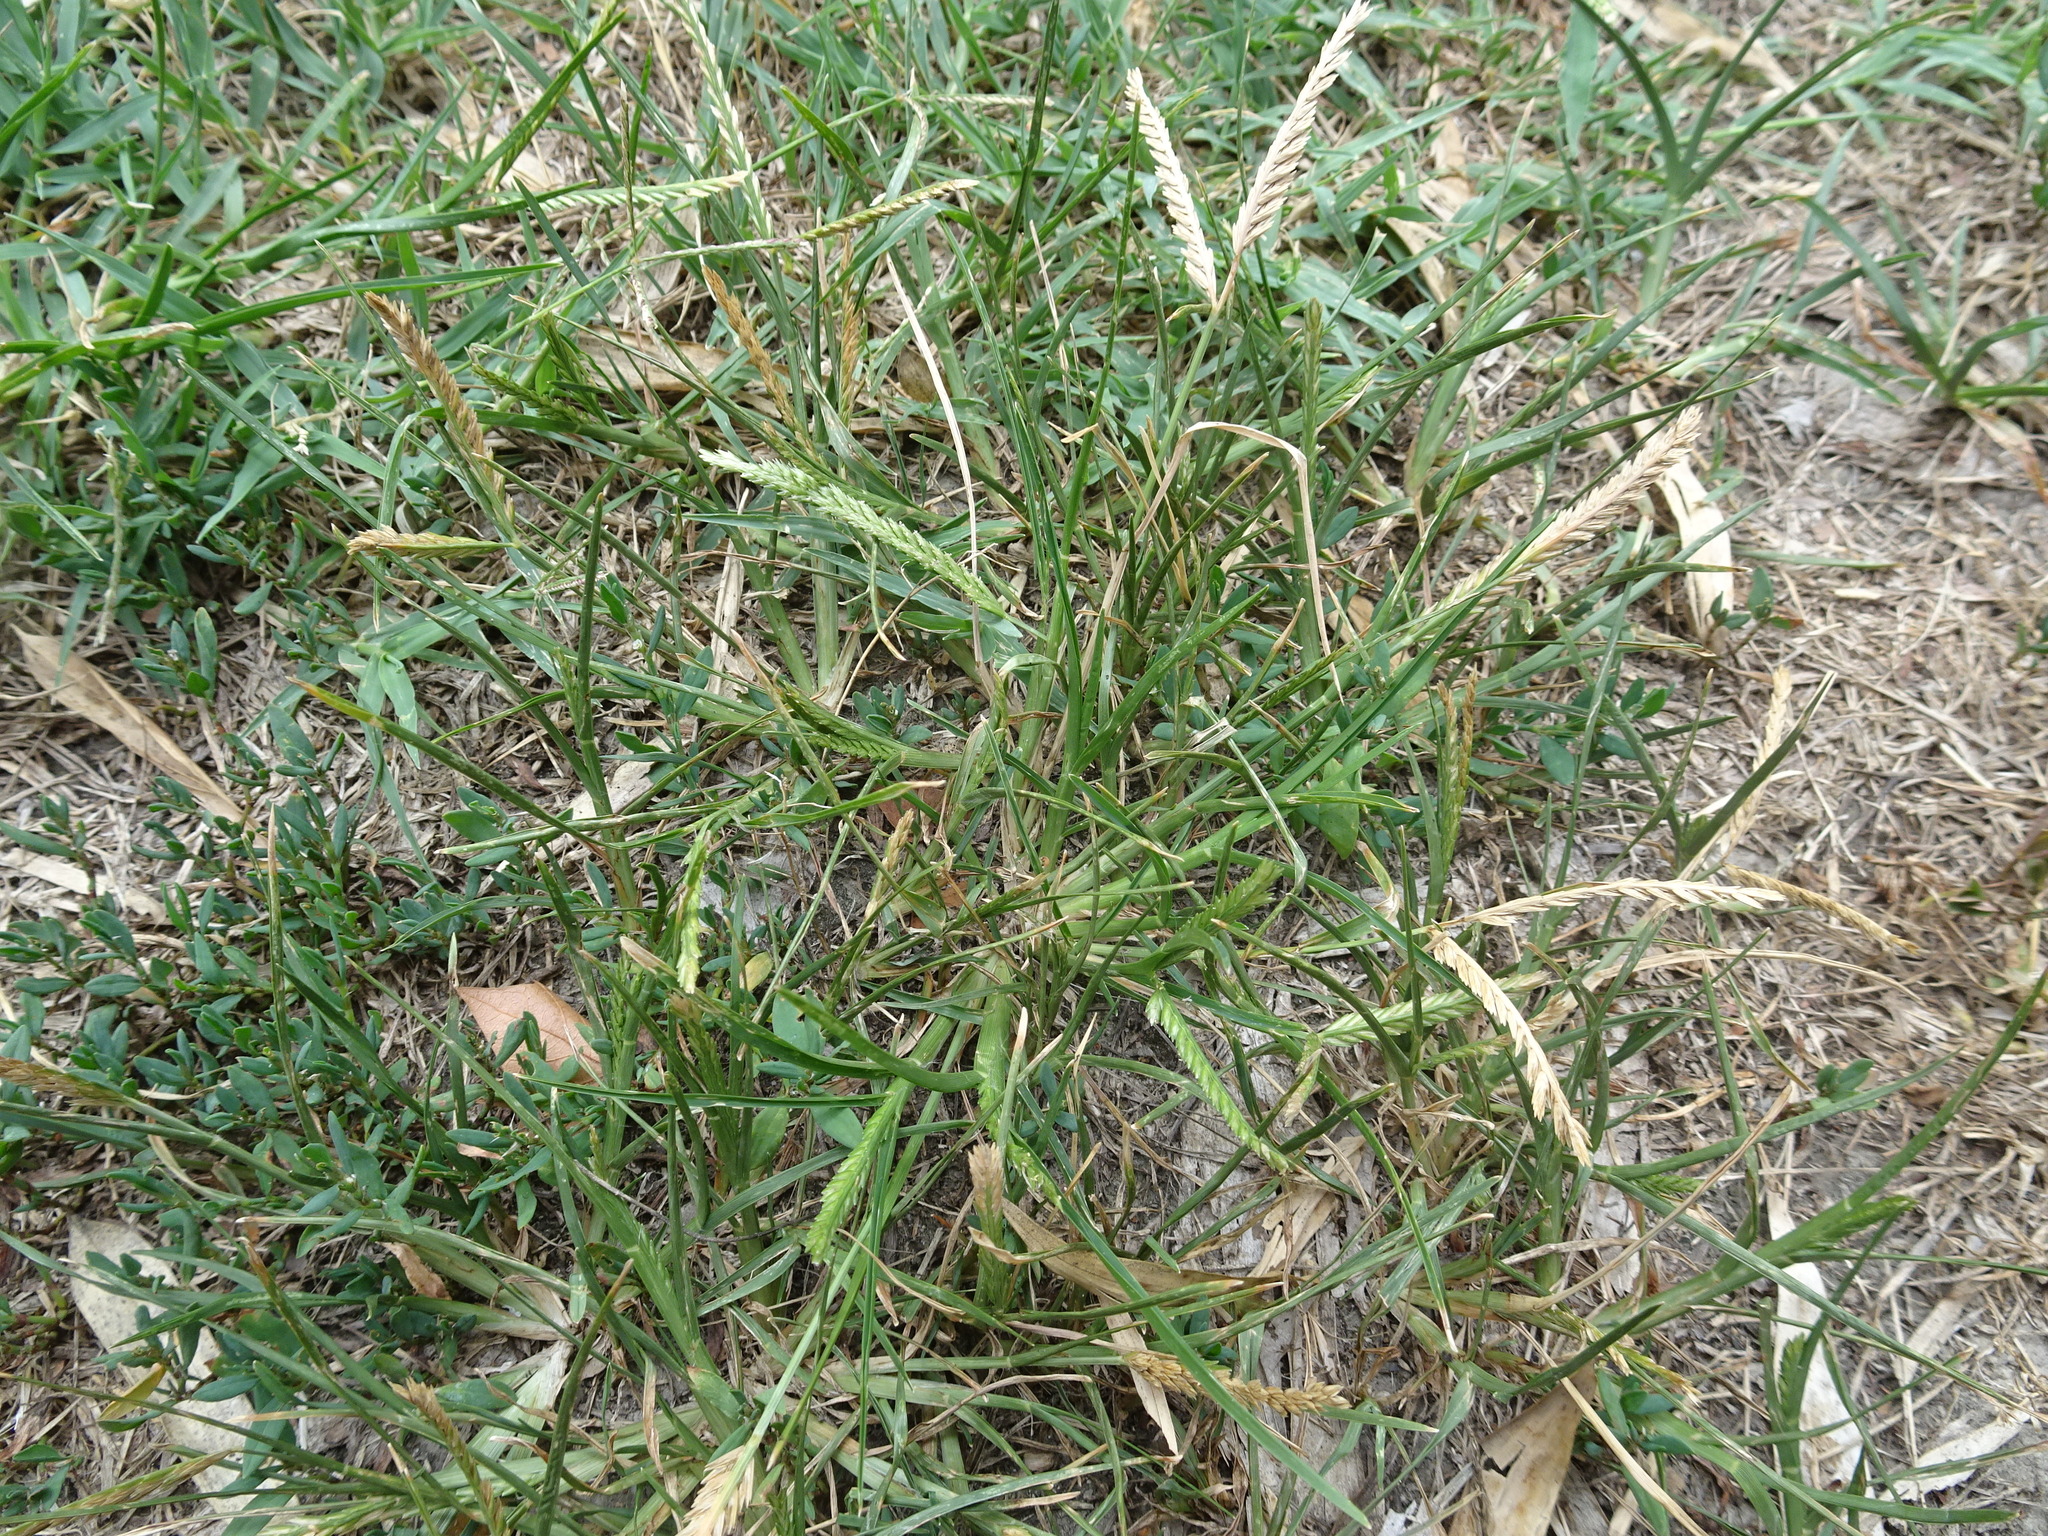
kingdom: Plantae
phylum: Tracheophyta
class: Liliopsida
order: Poales
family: Poaceae
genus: Eleusine
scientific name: Eleusine indica
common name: Yard-grass
